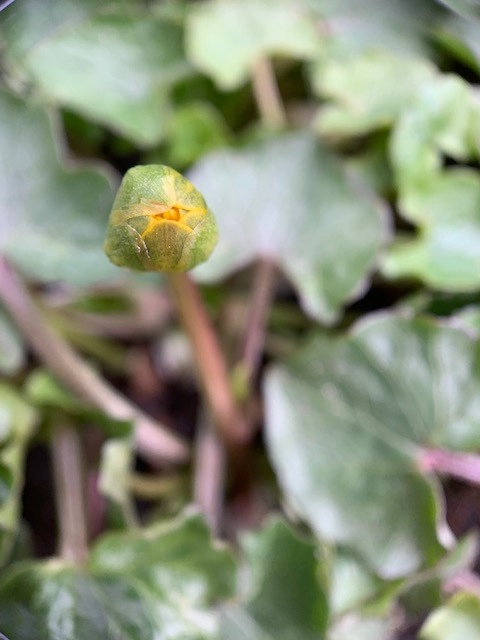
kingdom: Plantae
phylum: Tracheophyta
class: Magnoliopsida
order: Ranunculales
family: Ranunculaceae
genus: Ficaria
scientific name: Ficaria verna
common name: Lesser celandine
